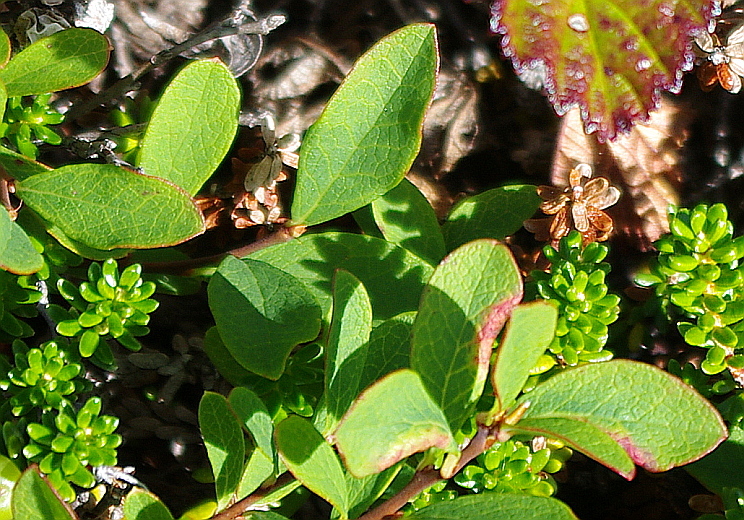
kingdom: Plantae
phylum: Tracheophyta
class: Magnoliopsida
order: Ericales
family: Ericaceae
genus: Vaccinium
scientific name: Vaccinium uliginosum
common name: Bog bilberry
